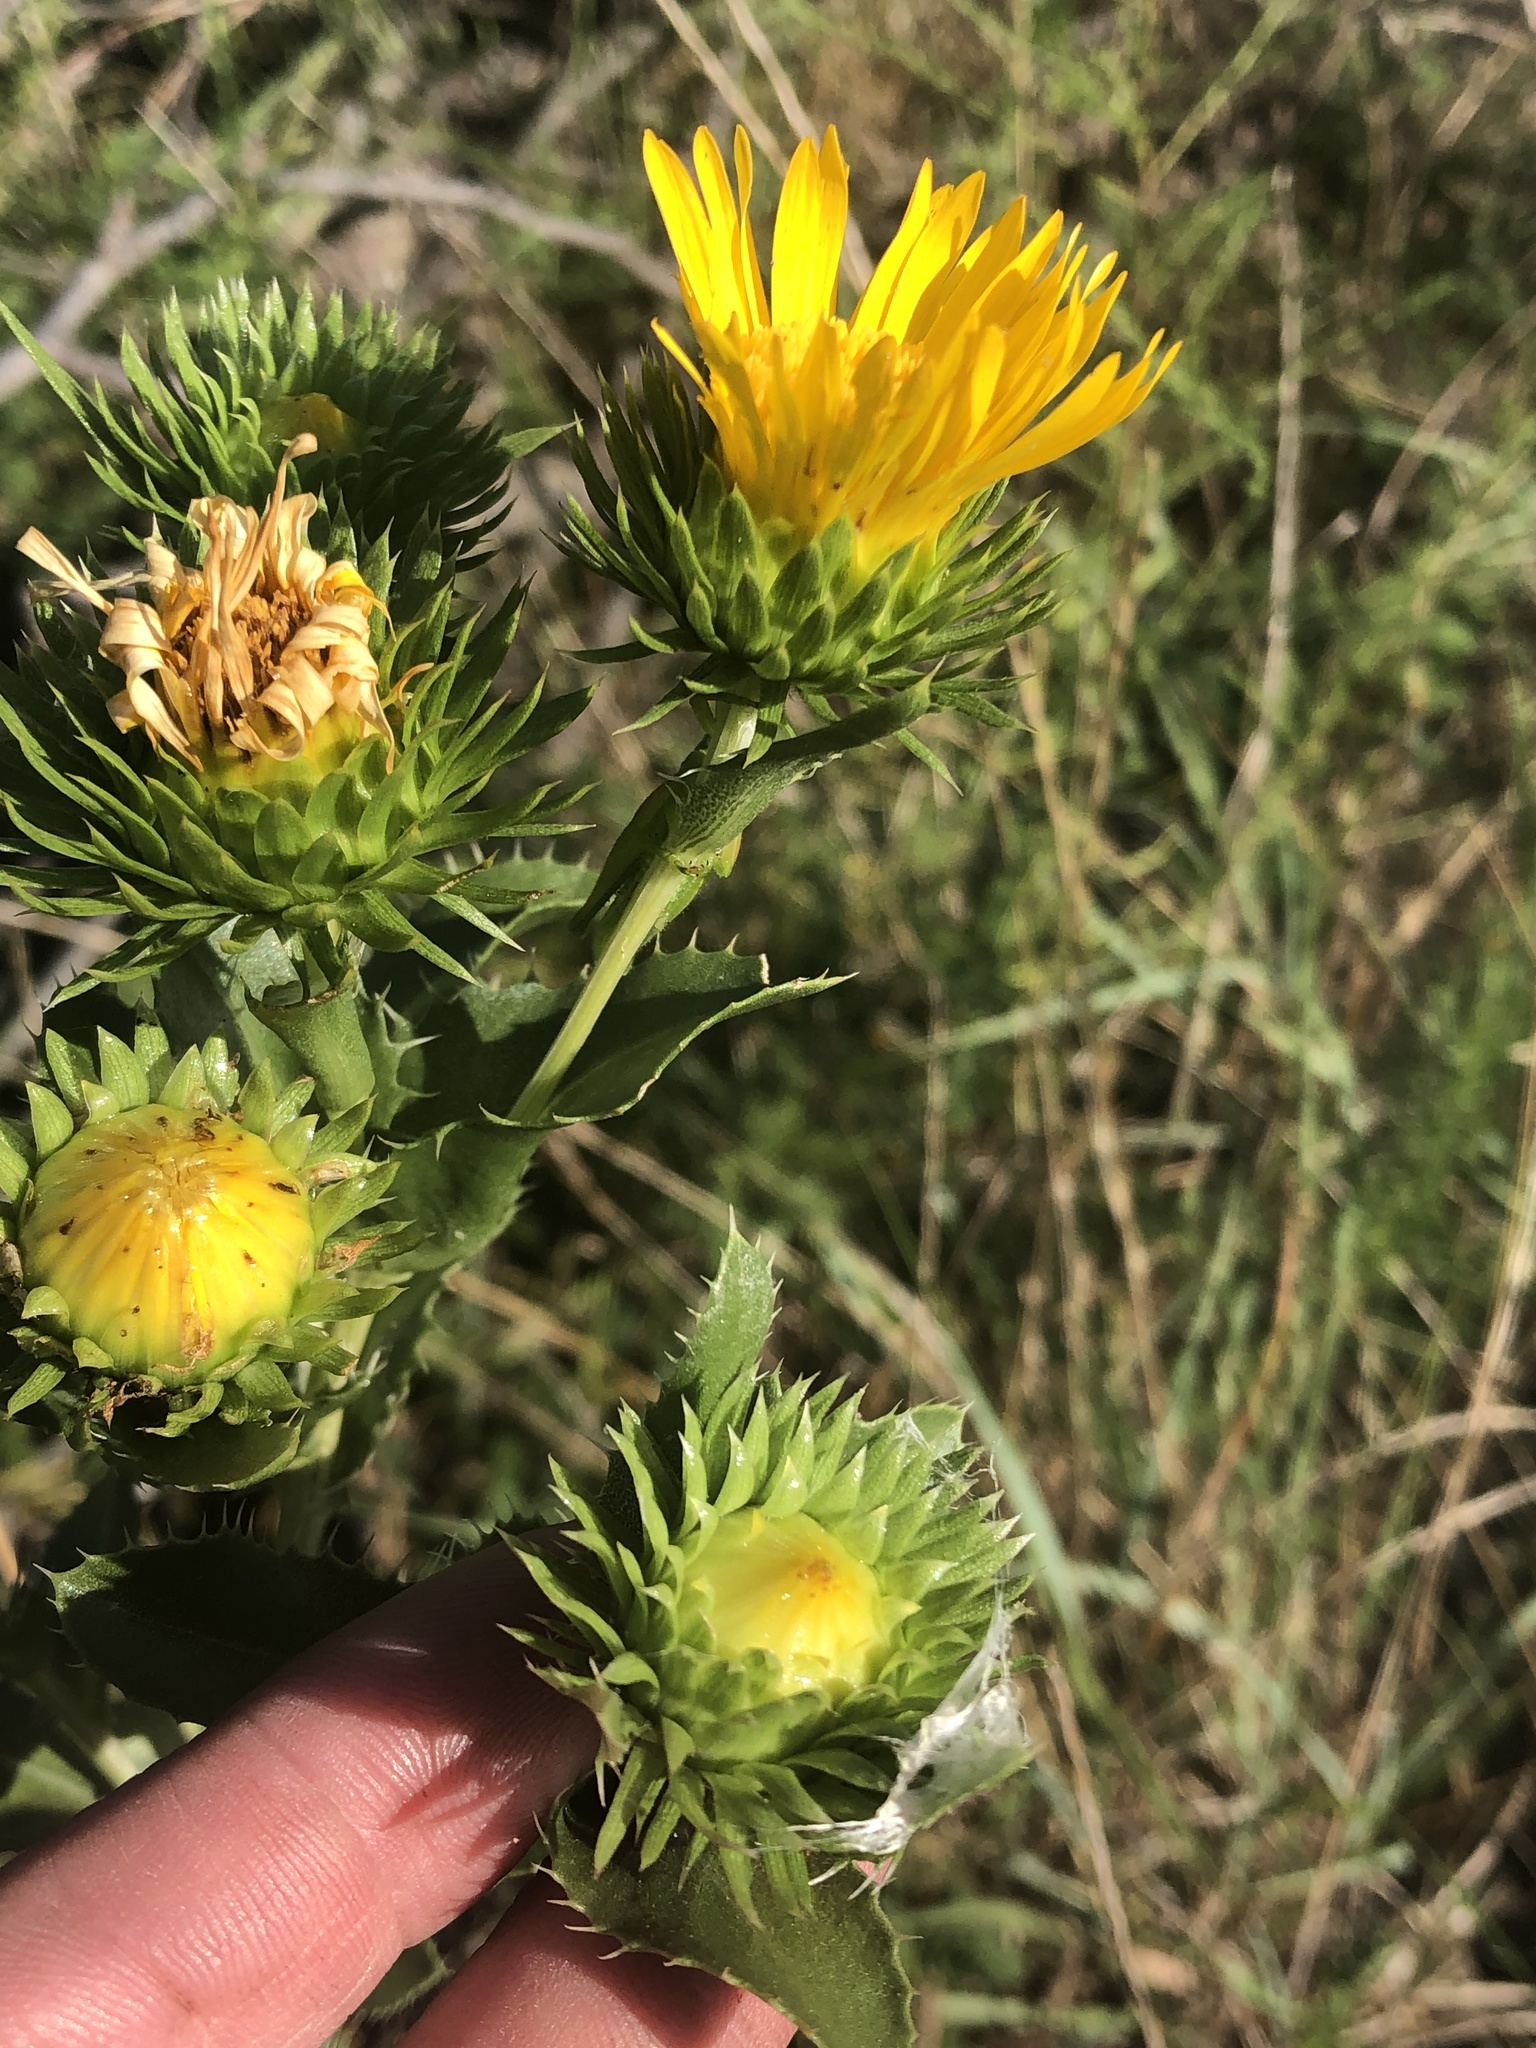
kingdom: Plantae
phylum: Tracheophyta
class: Magnoliopsida
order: Asterales
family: Asteraceae
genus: Grindelia
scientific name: Grindelia ciliata
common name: Goldenweed
